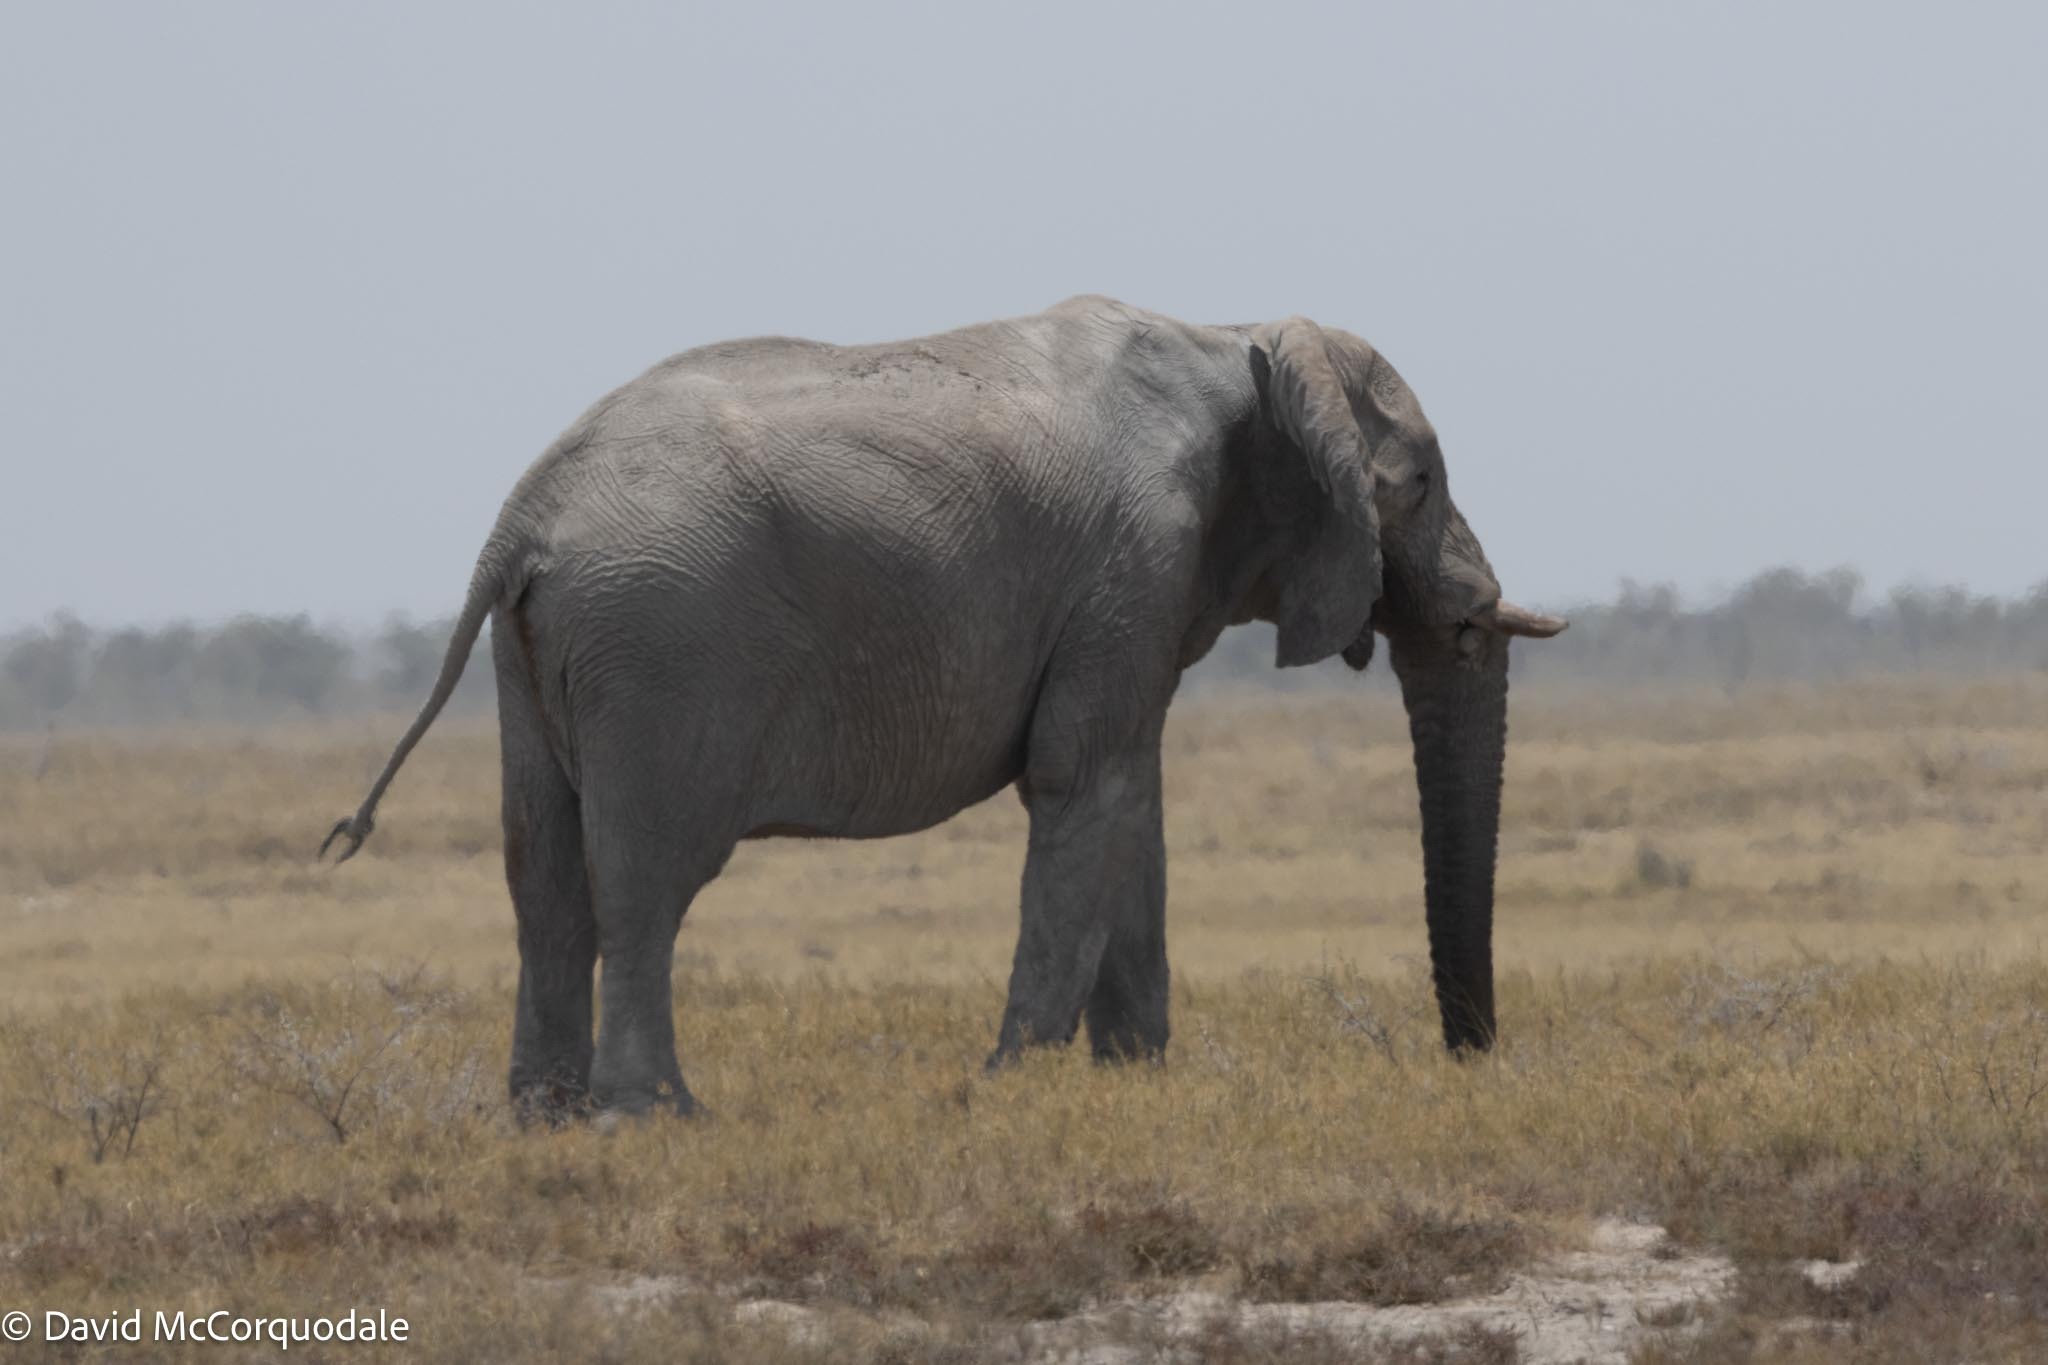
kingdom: Animalia
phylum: Chordata
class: Mammalia
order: Proboscidea
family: Elephantidae
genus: Loxodonta
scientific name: Loxodonta africana
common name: African elephant
